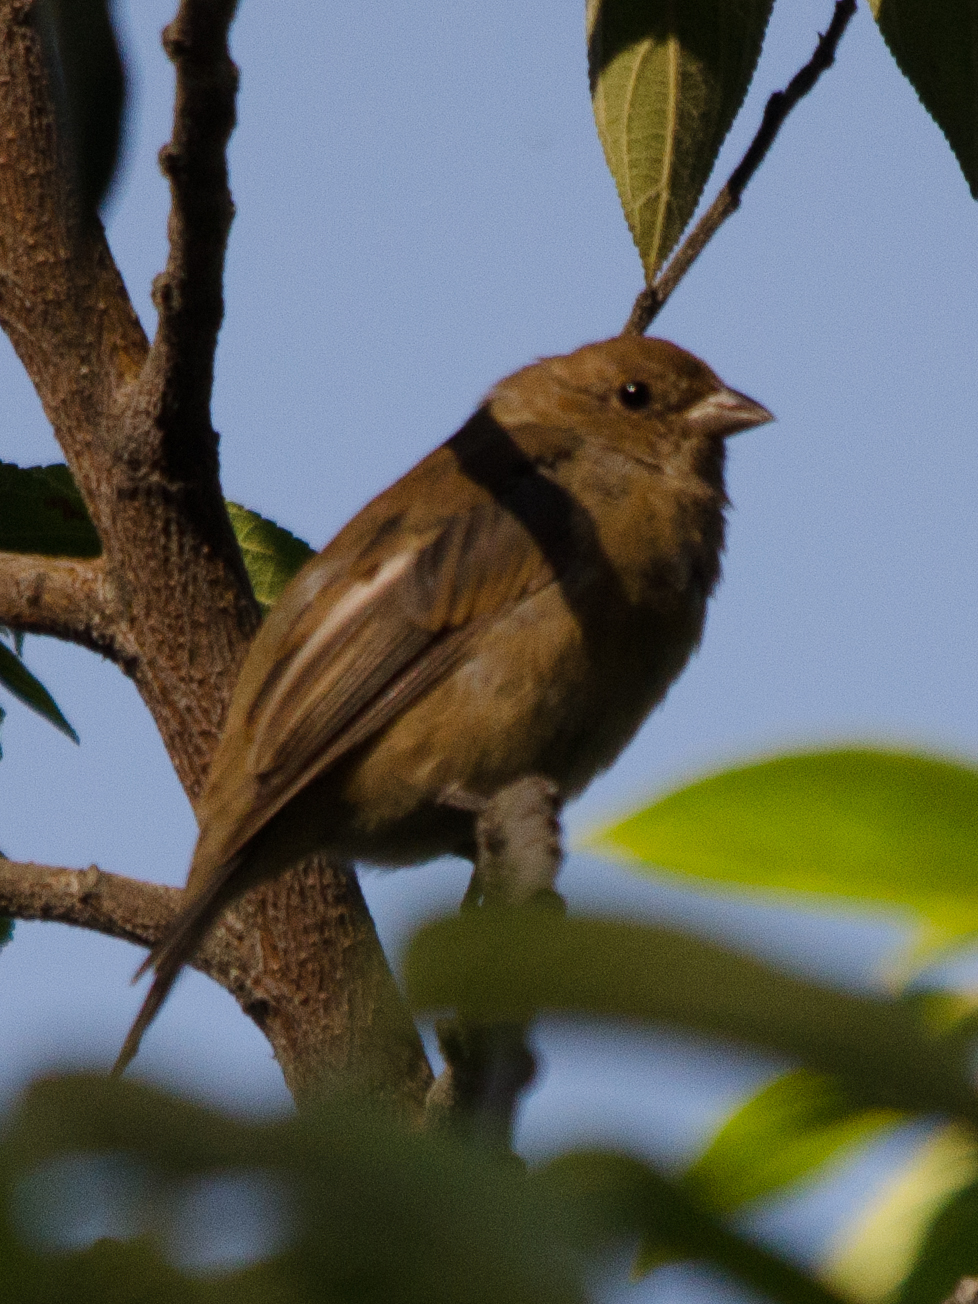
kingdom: Animalia
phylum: Chordata
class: Aves
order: Passeriformes
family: Cardinalidae
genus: Passerina
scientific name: Passerina cyanea
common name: Indigo bunting
